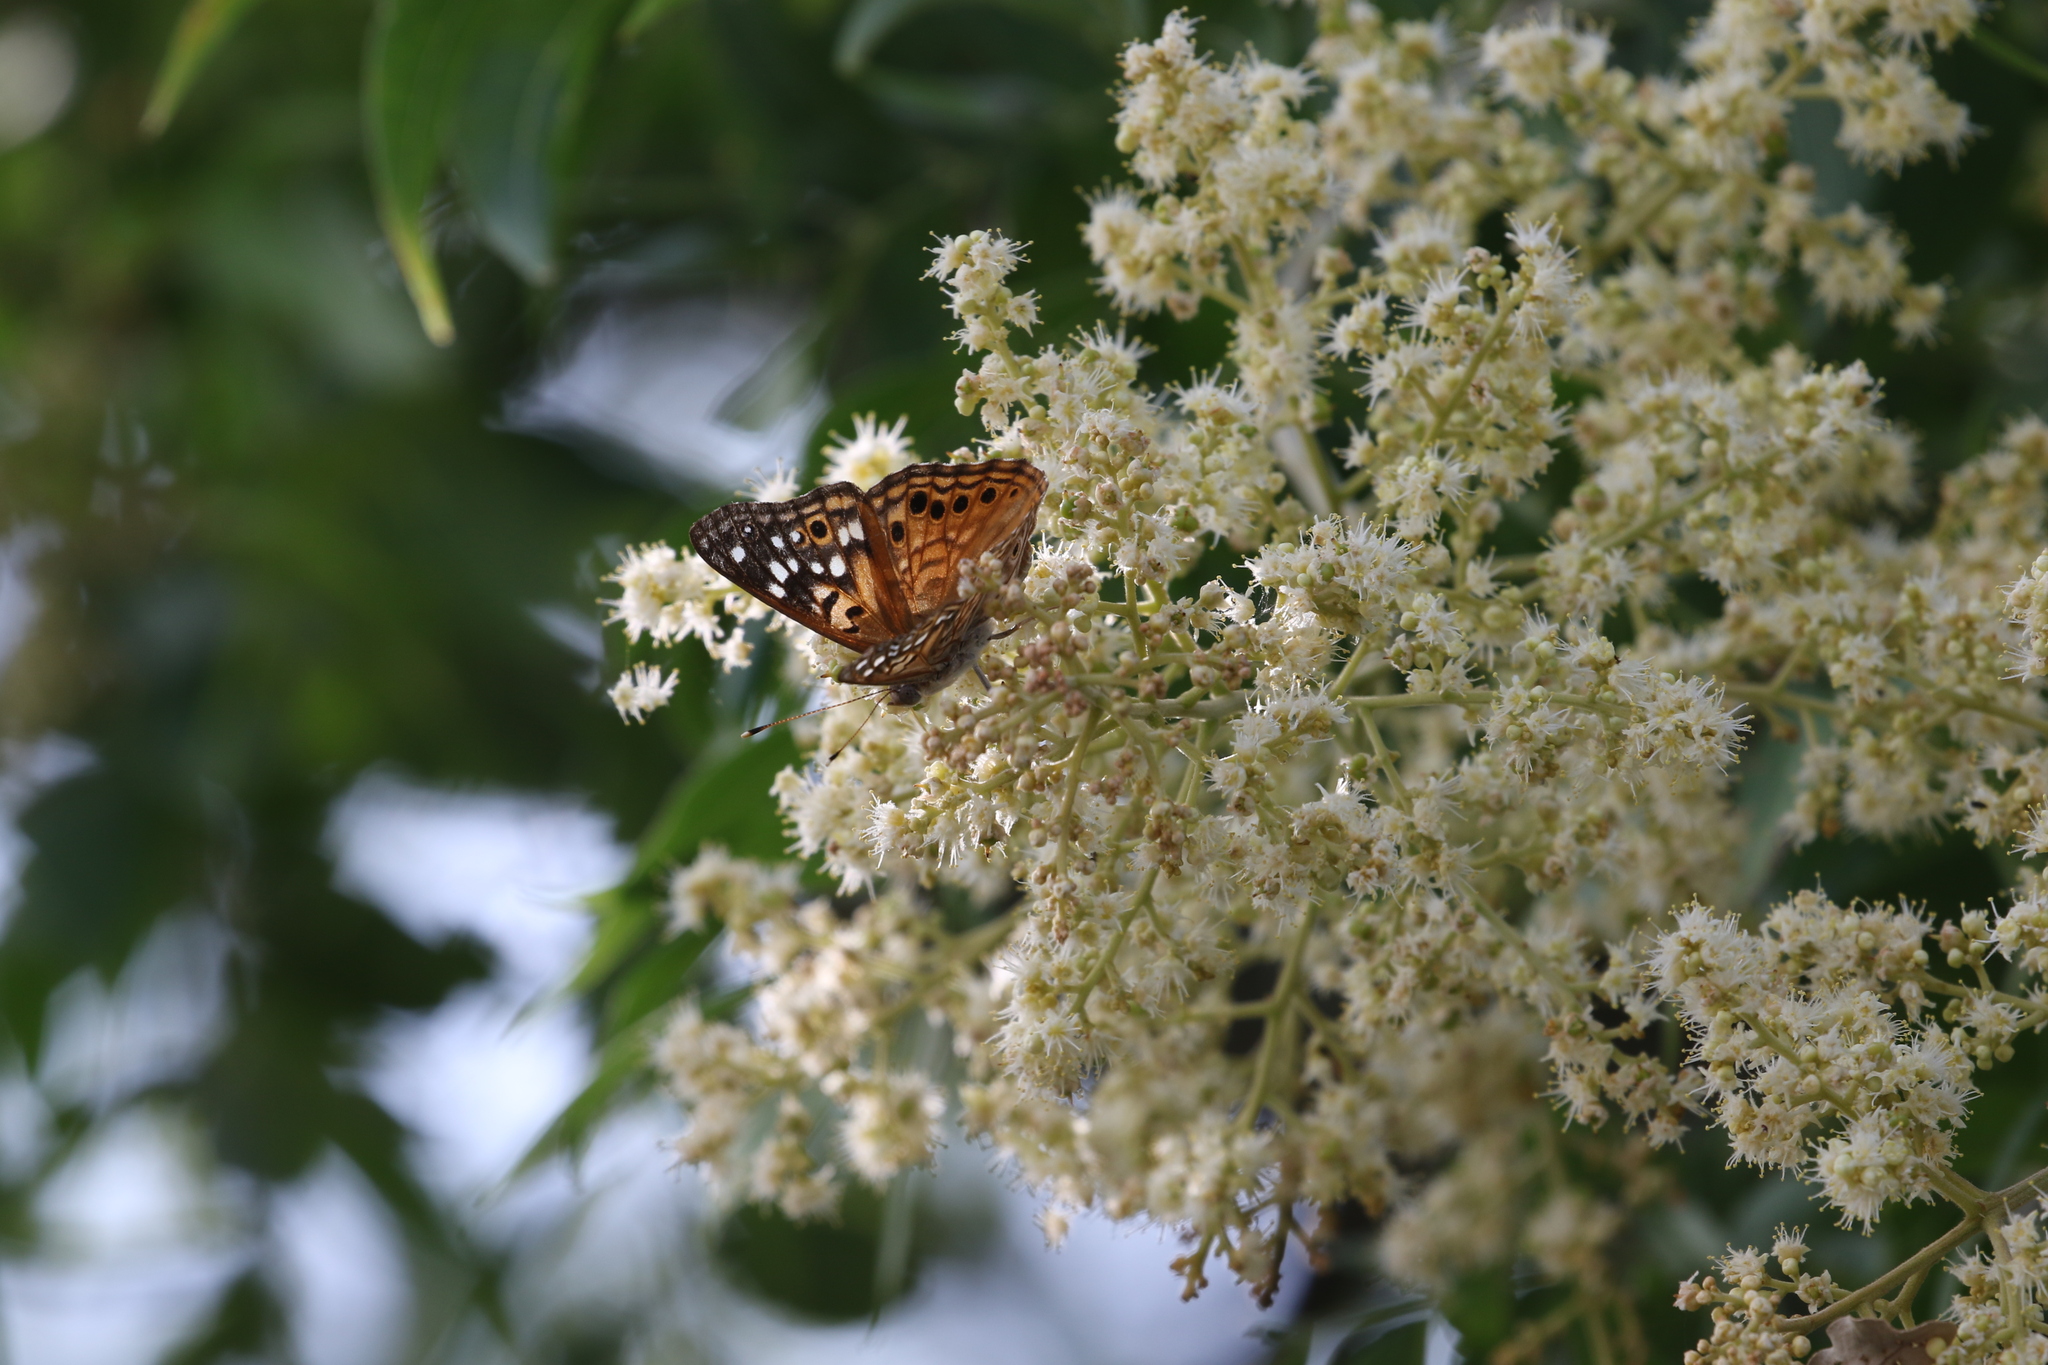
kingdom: Animalia
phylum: Arthropoda
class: Insecta
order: Lepidoptera
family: Nymphalidae
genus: Asterocampa
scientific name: Asterocampa celtis
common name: Hackberry emperor
